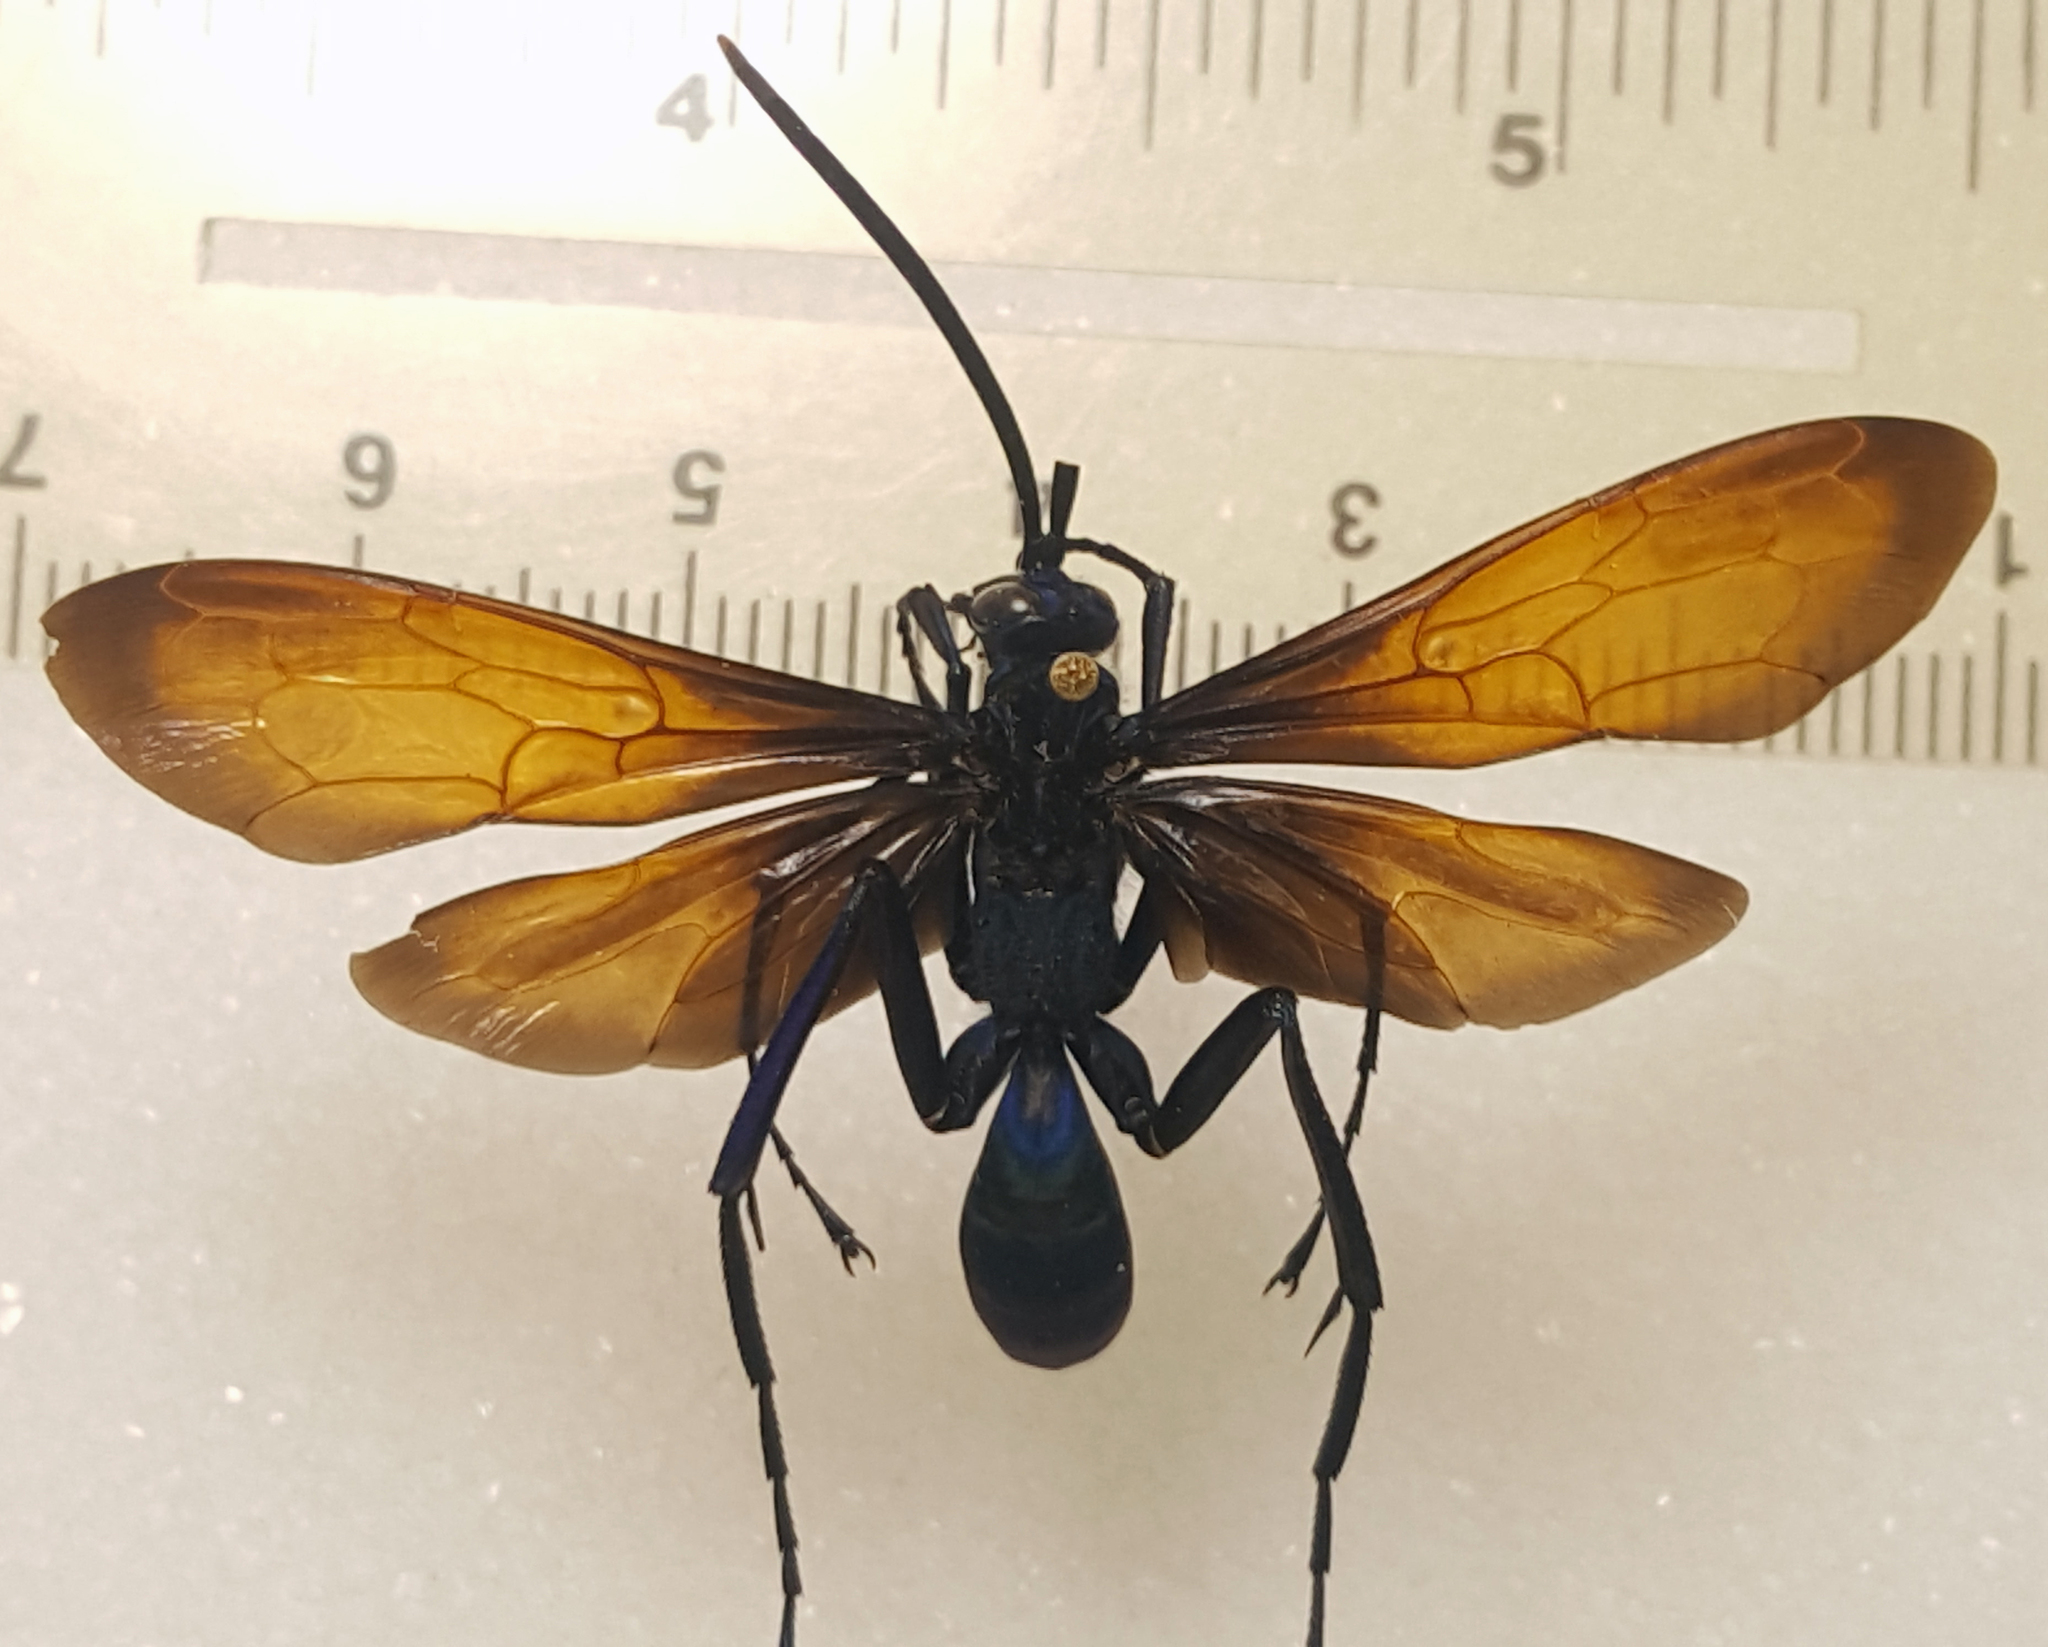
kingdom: Animalia
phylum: Arthropoda
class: Insecta
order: Hymenoptera
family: Pompilidae
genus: Pepsis
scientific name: Pepsis thisbe
